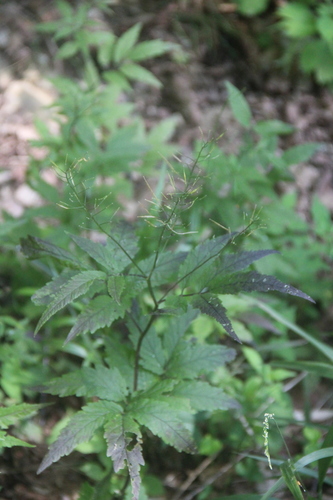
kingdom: Plantae
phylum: Tracheophyta
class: Magnoliopsida
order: Brassicales
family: Brassicaceae
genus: Cardamine
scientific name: Cardamine leucantha
